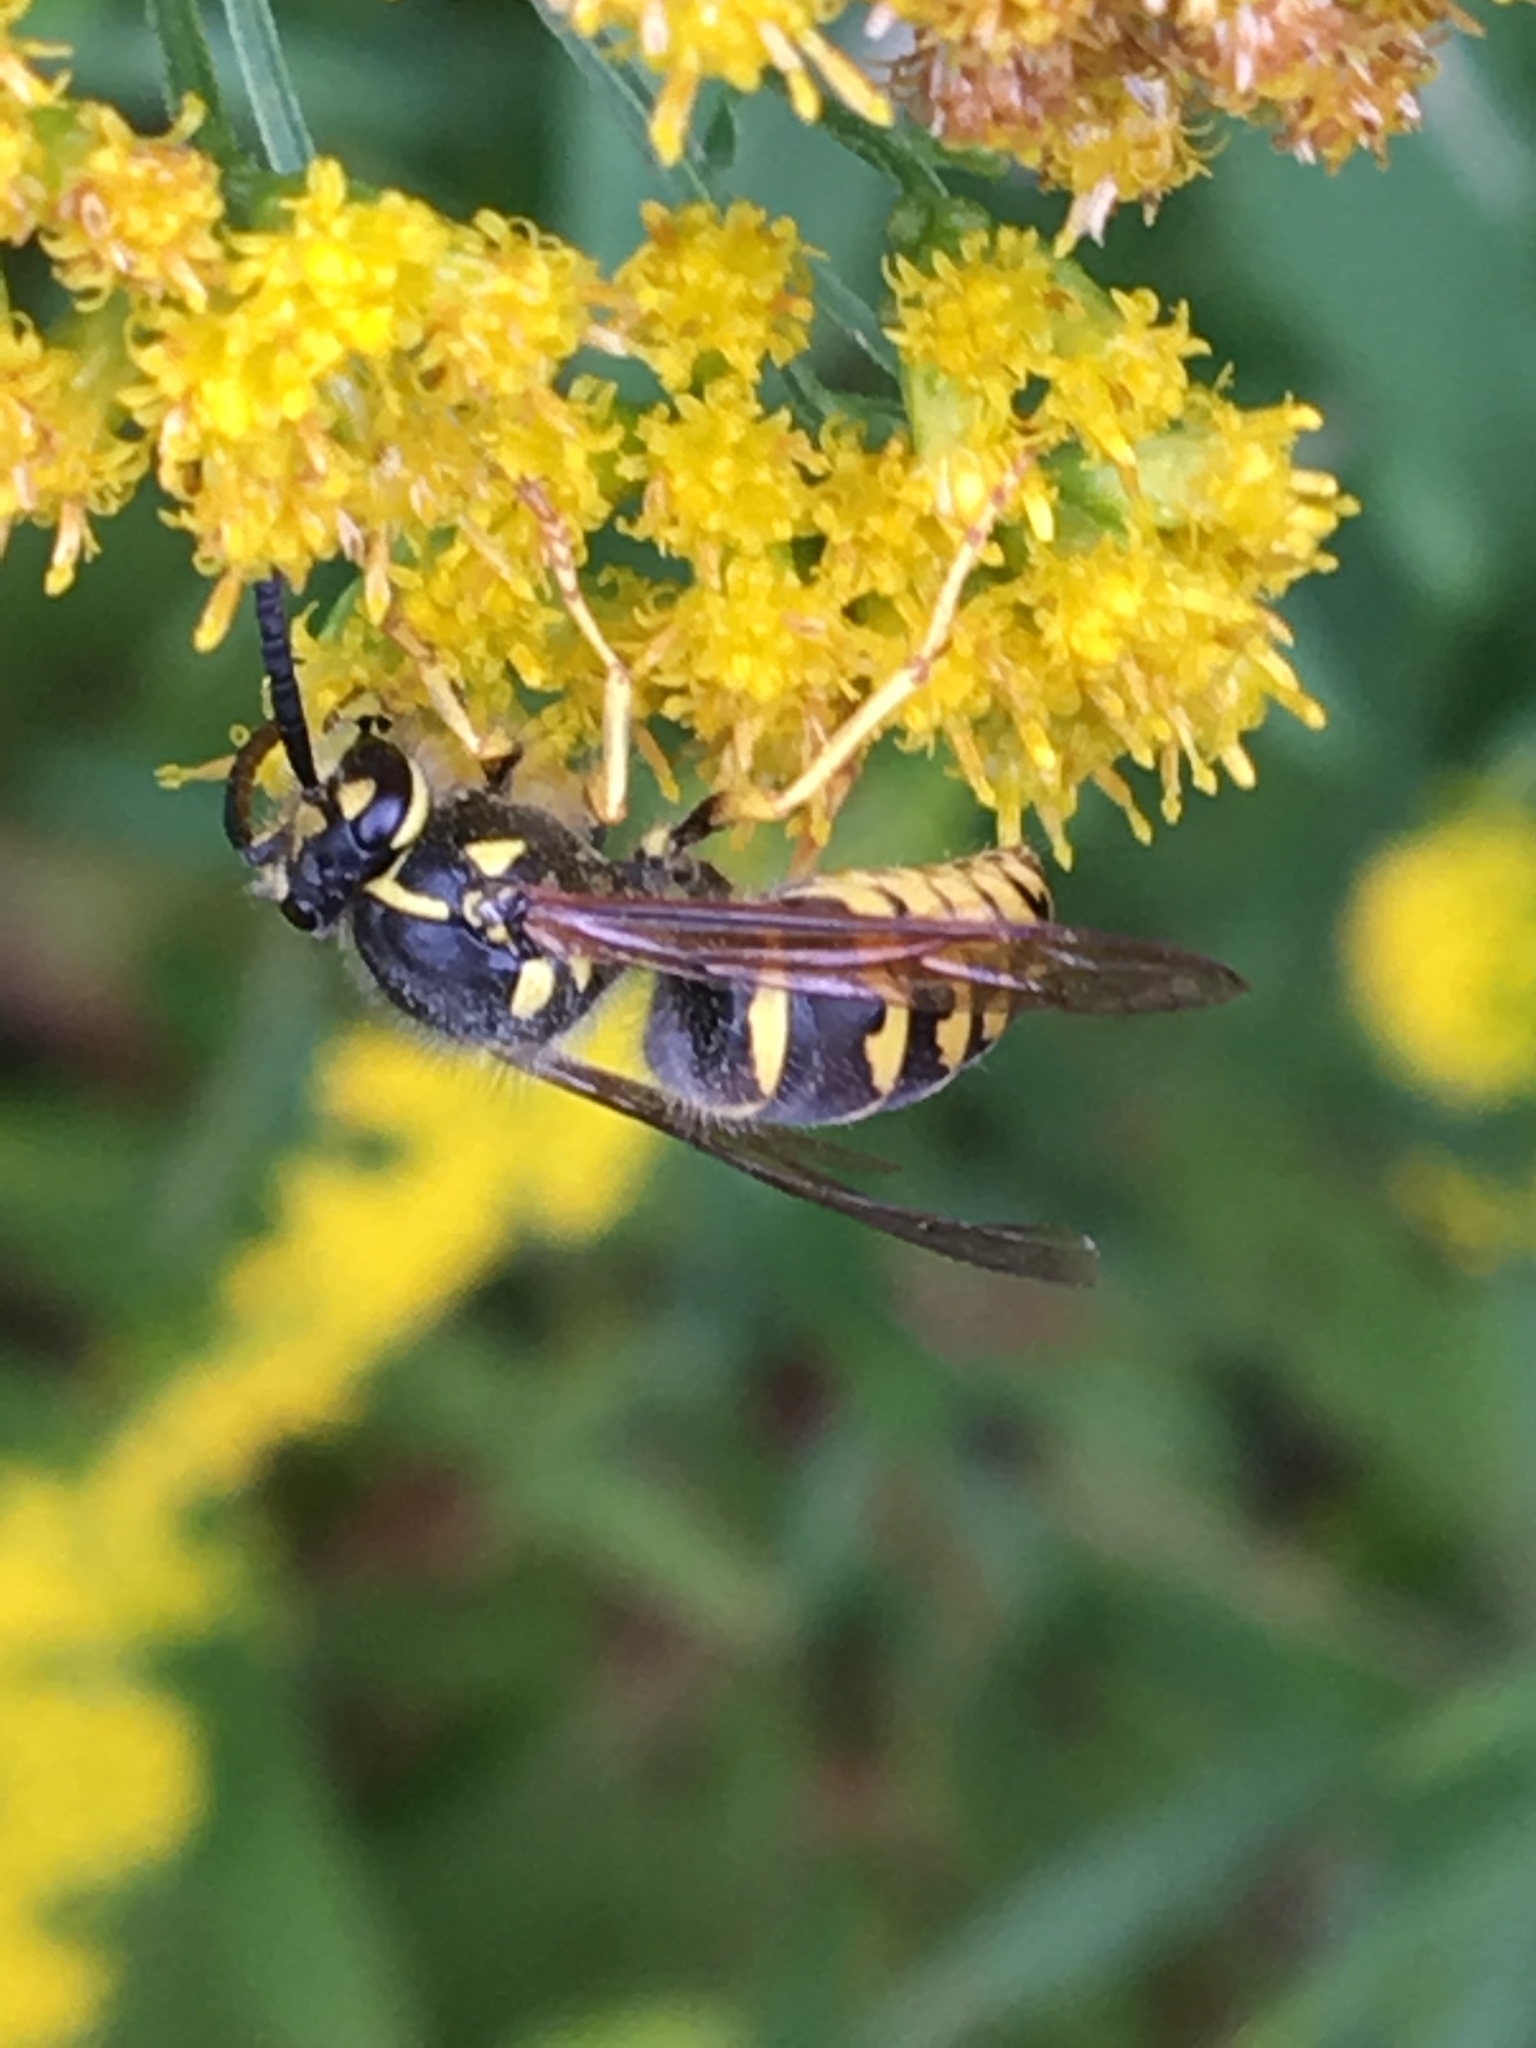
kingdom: Animalia
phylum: Arthropoda
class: Insecta
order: Hymenoptera
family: Vespidae
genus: Dolichovespula
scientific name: Dolichovespula arenaria
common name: Aerial yellowjacket
